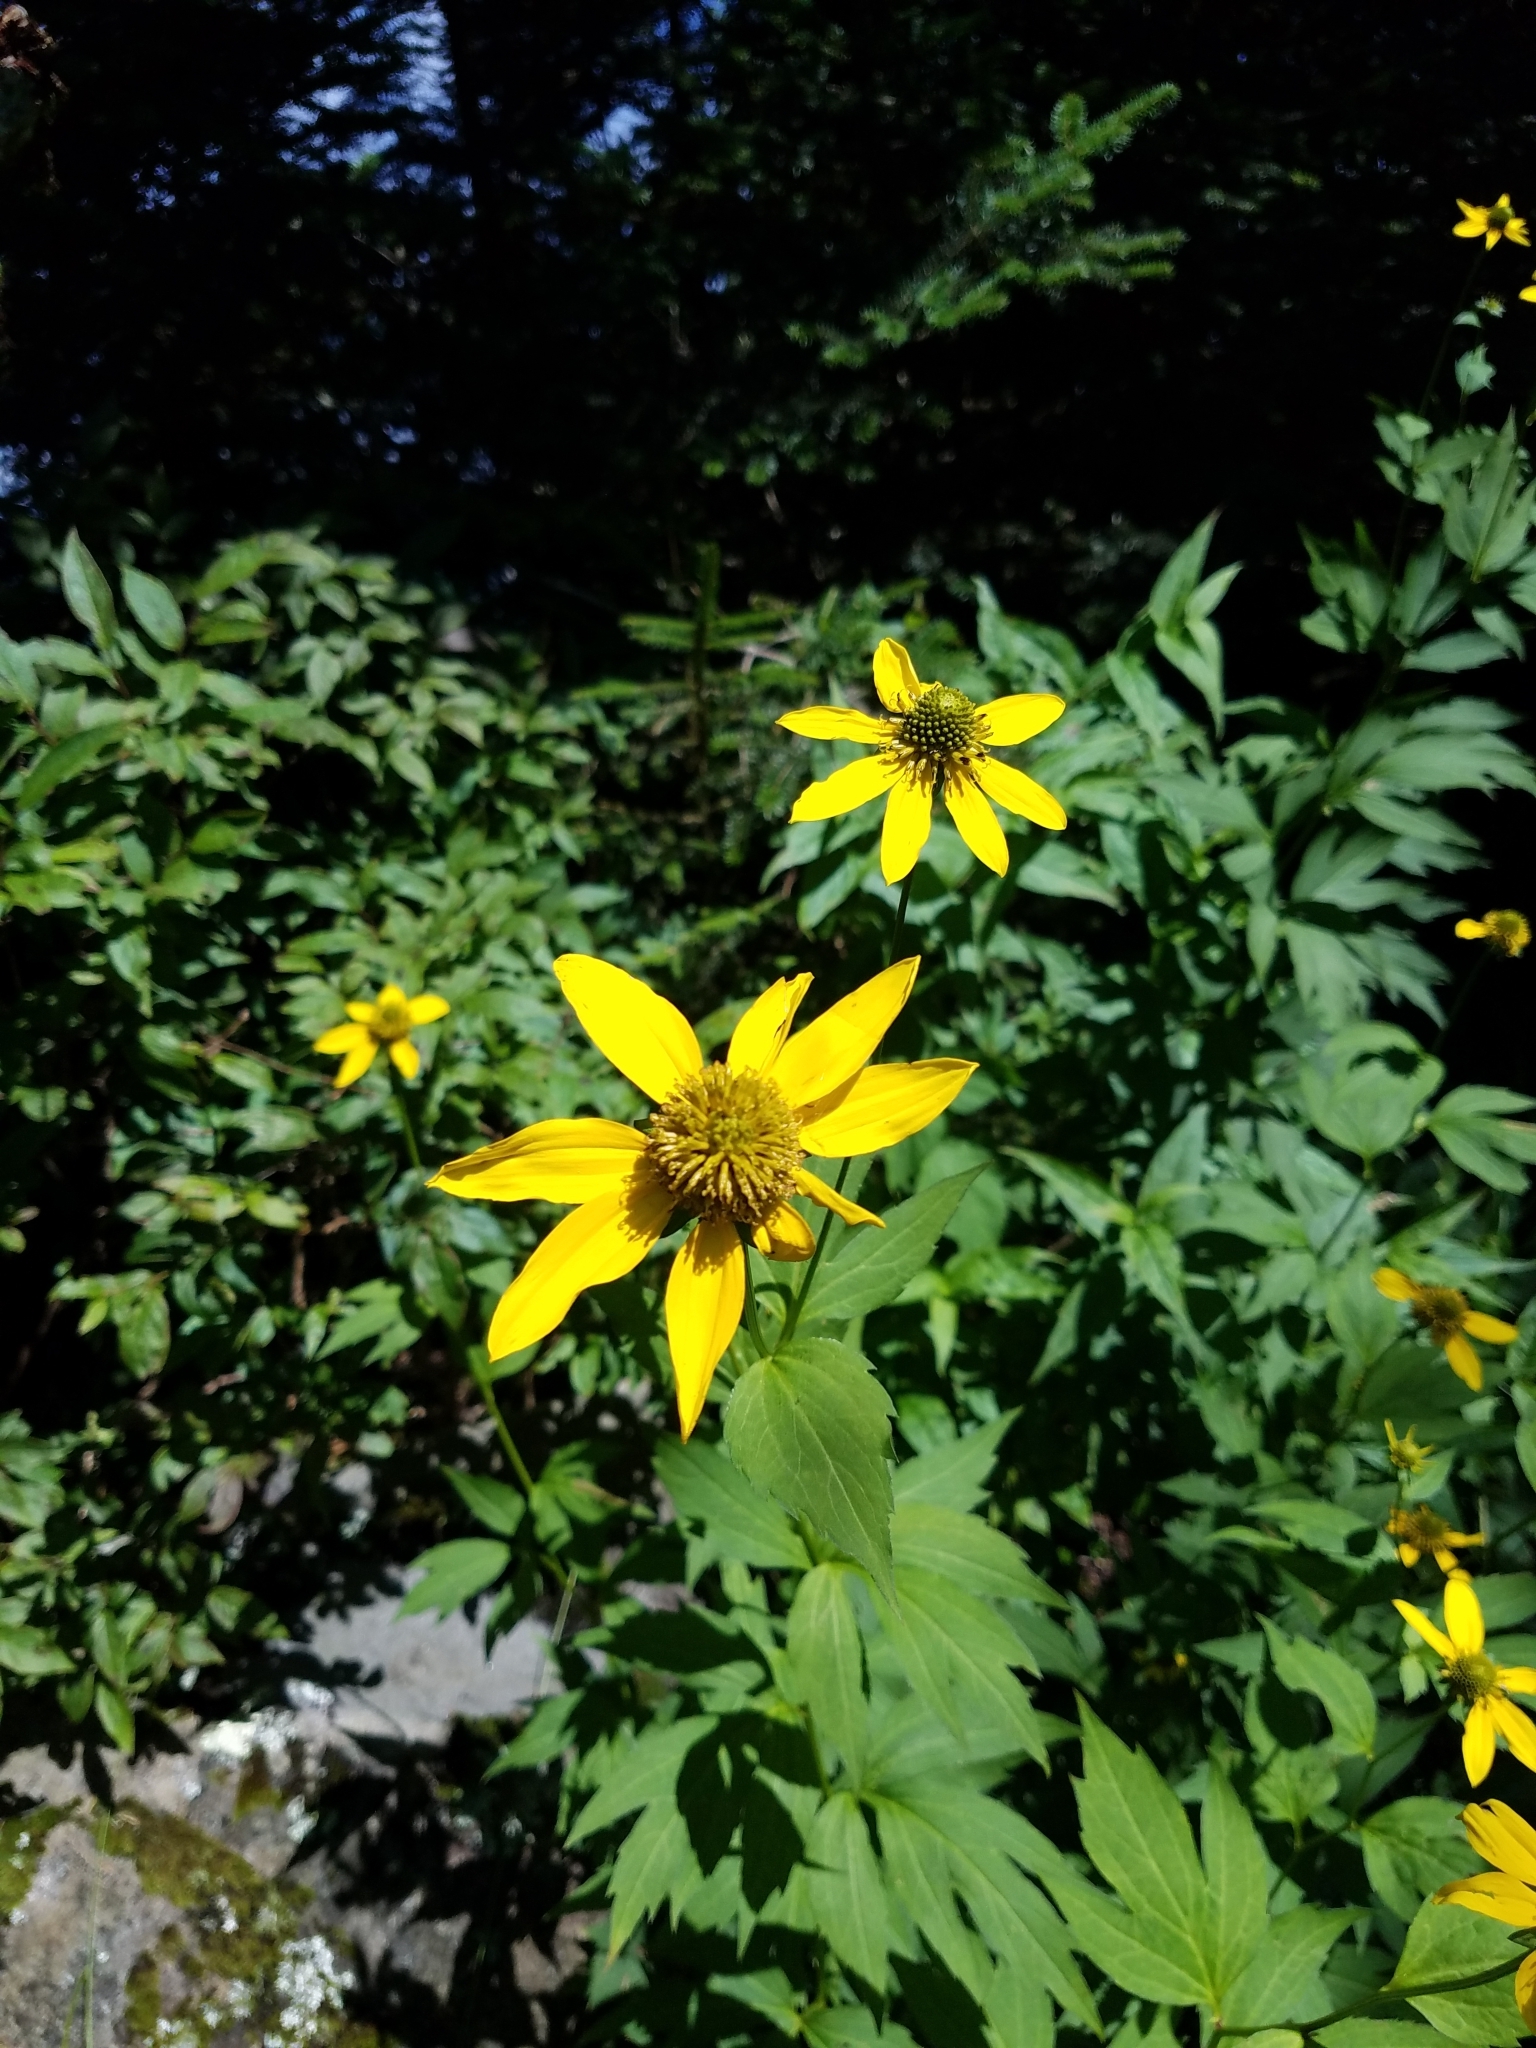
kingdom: Plantae
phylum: Tracheophyta
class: Magnoliopsida
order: Asterales
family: Asteraceae
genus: Rudbeckia
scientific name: Rudbeckia laciniata
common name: Coneflower
